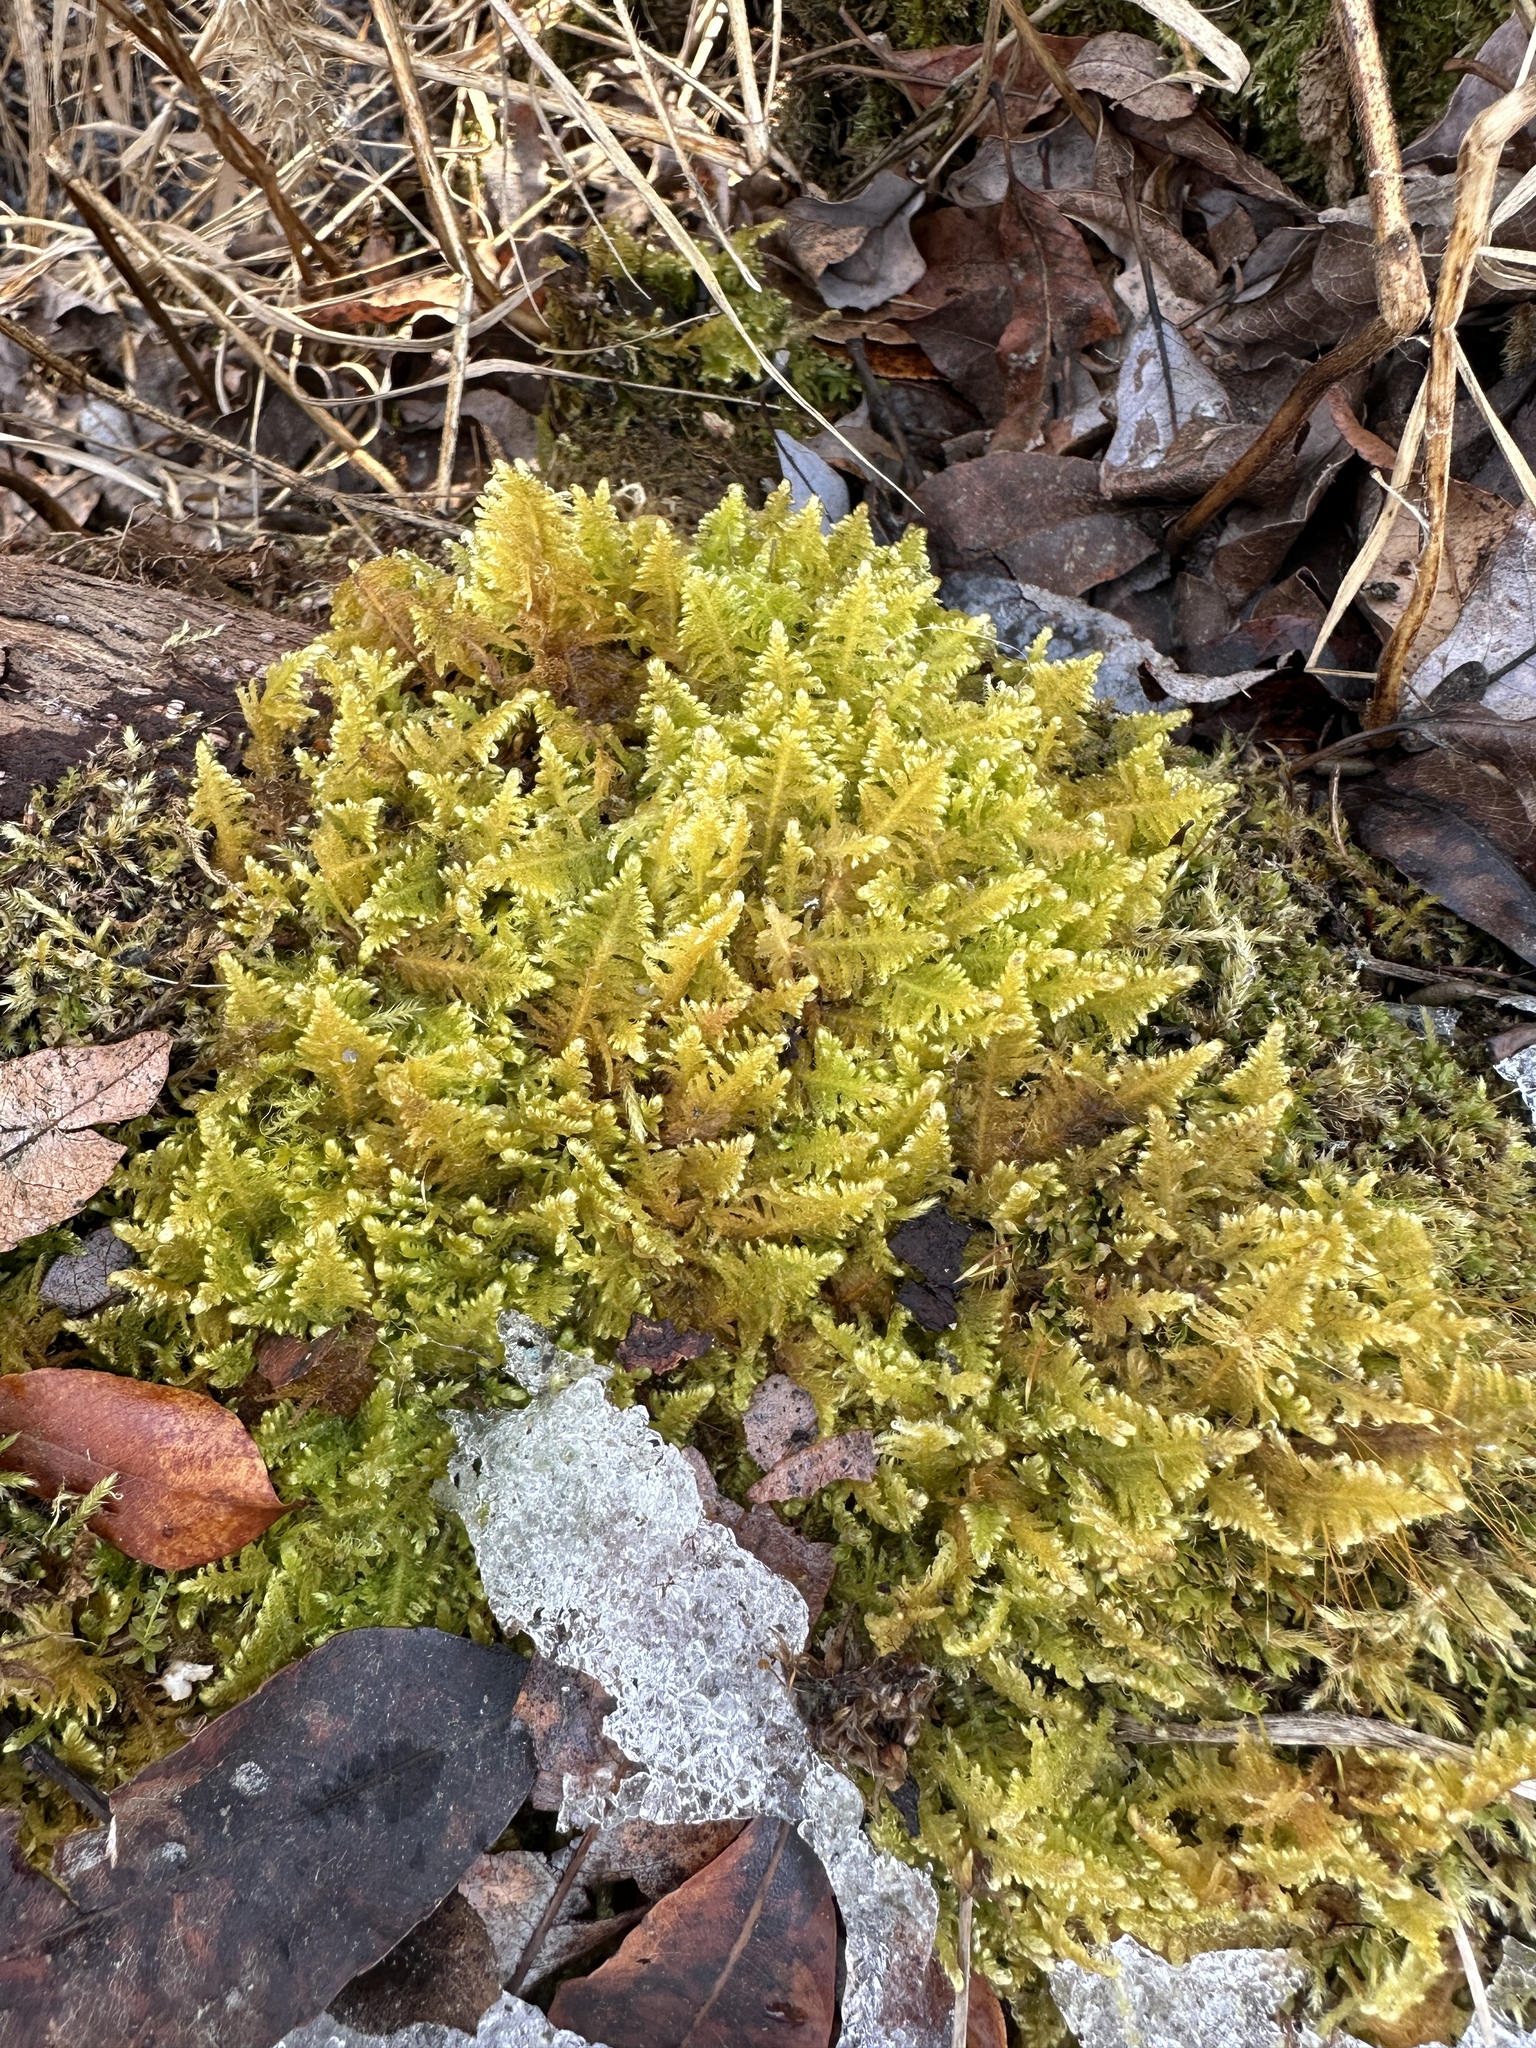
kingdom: Plantae
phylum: Bryophyta
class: Bryopsida
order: Hypnales
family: Pylaisiaceae
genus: Ptilium
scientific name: Ptilium crista-castrensis
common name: Knight's plume moss
